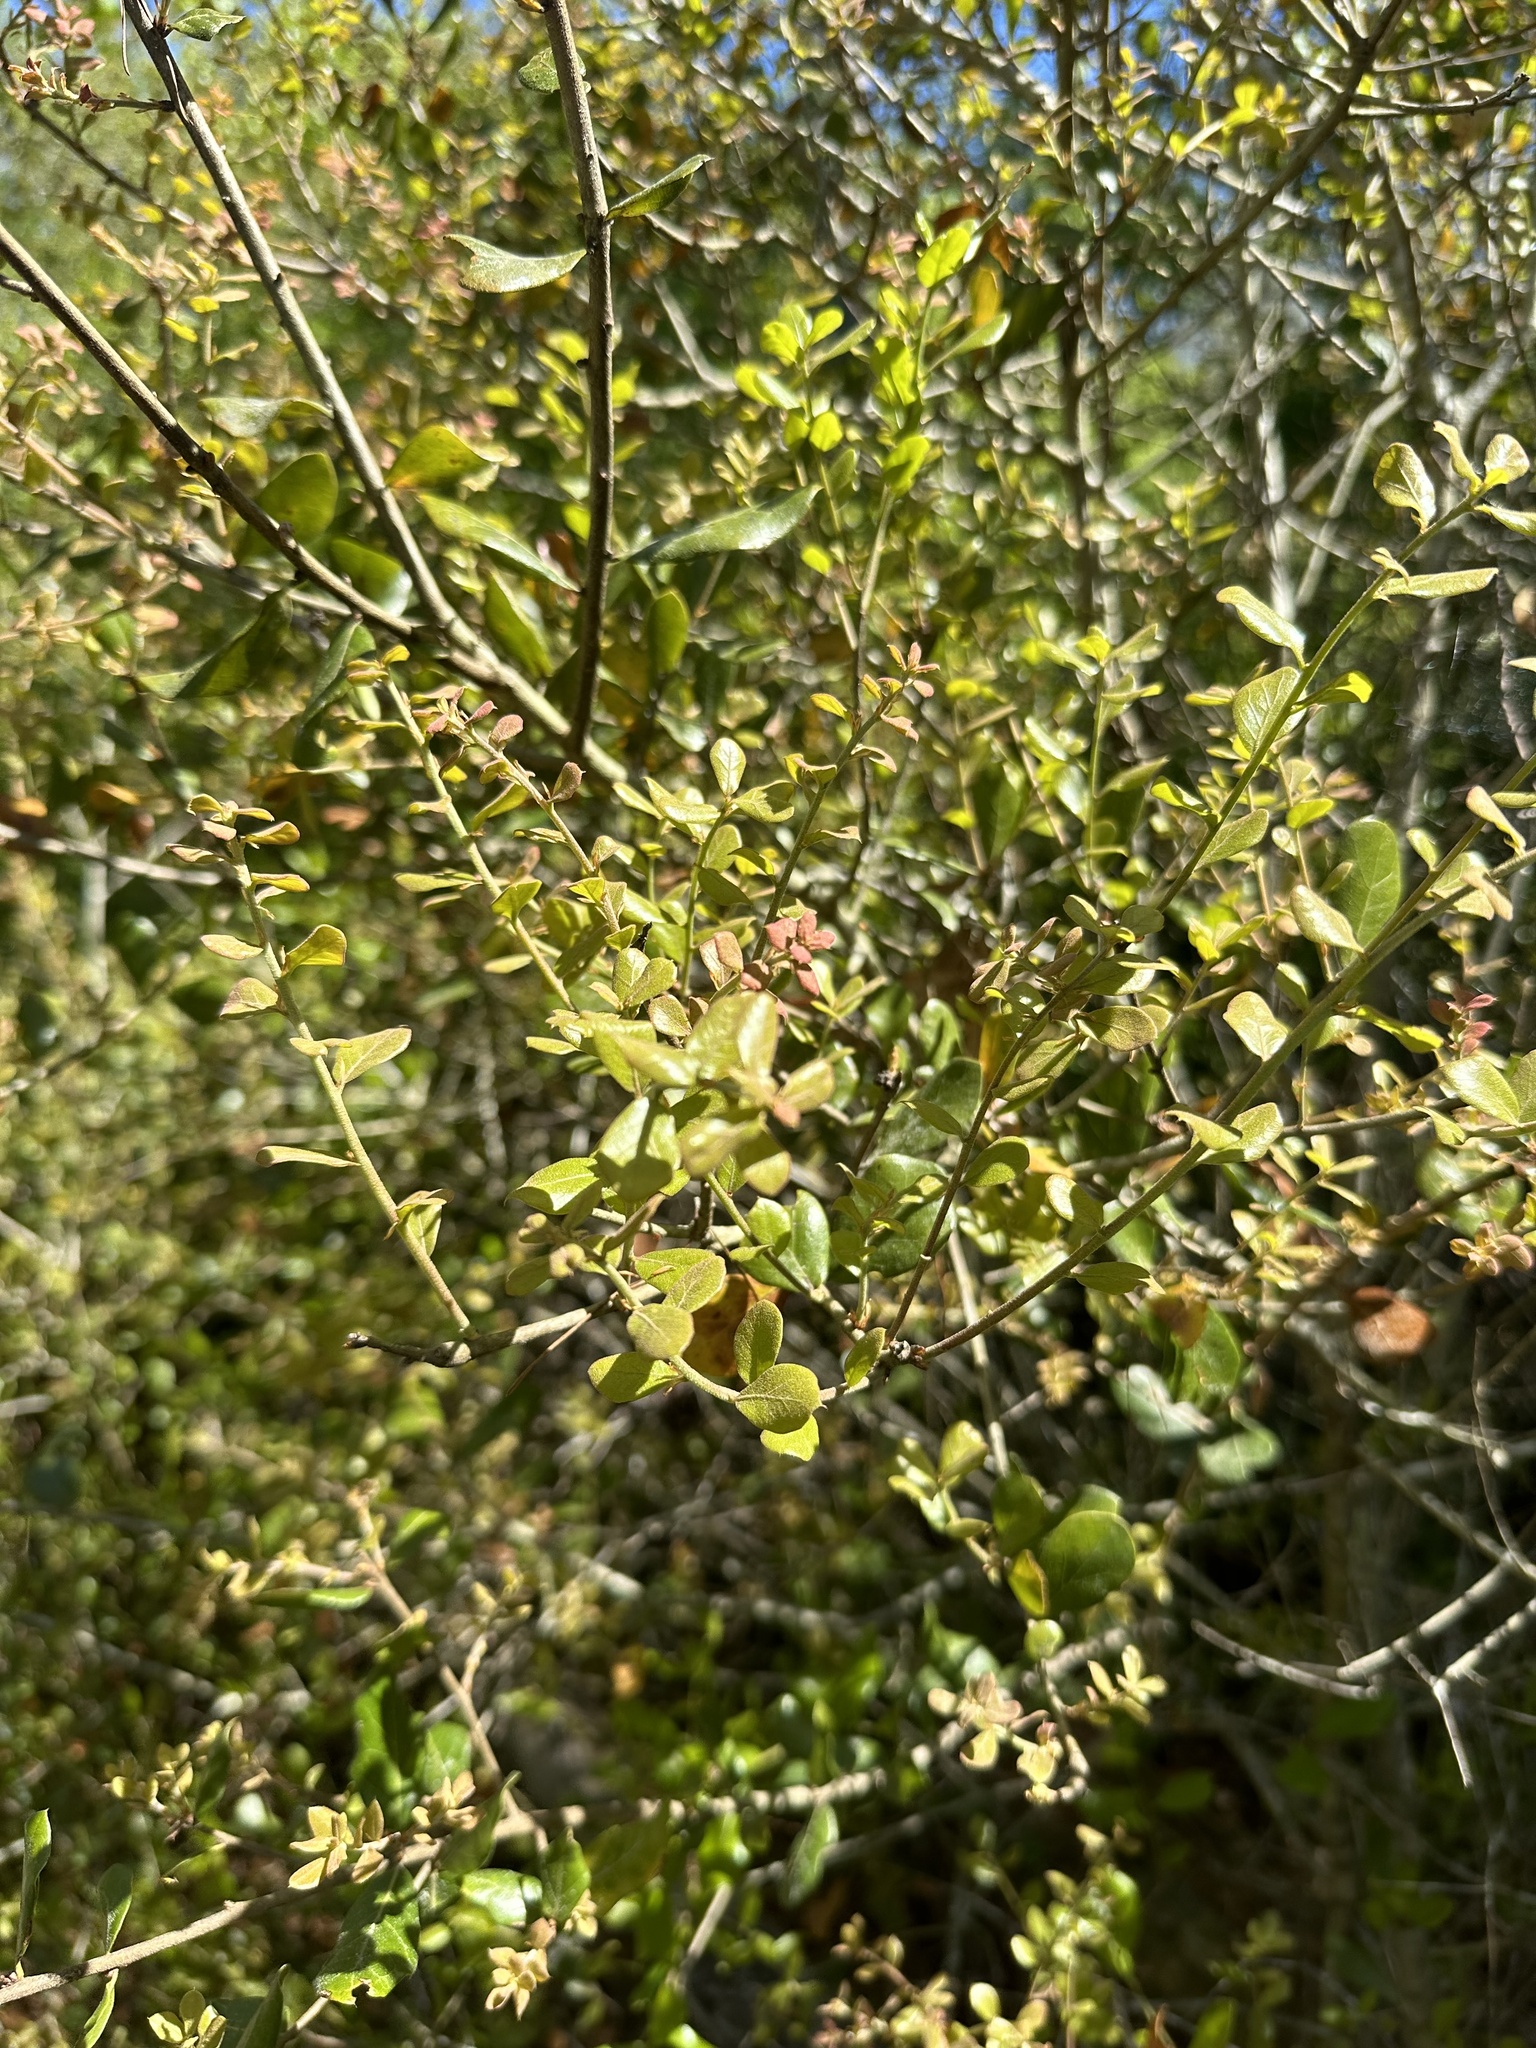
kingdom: Plantae
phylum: Tracheophyta
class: Magnoliopsida
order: Fagales
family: Fagaceae
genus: Quercus
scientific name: Quercus myrtifolia
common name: Myrtle oak
